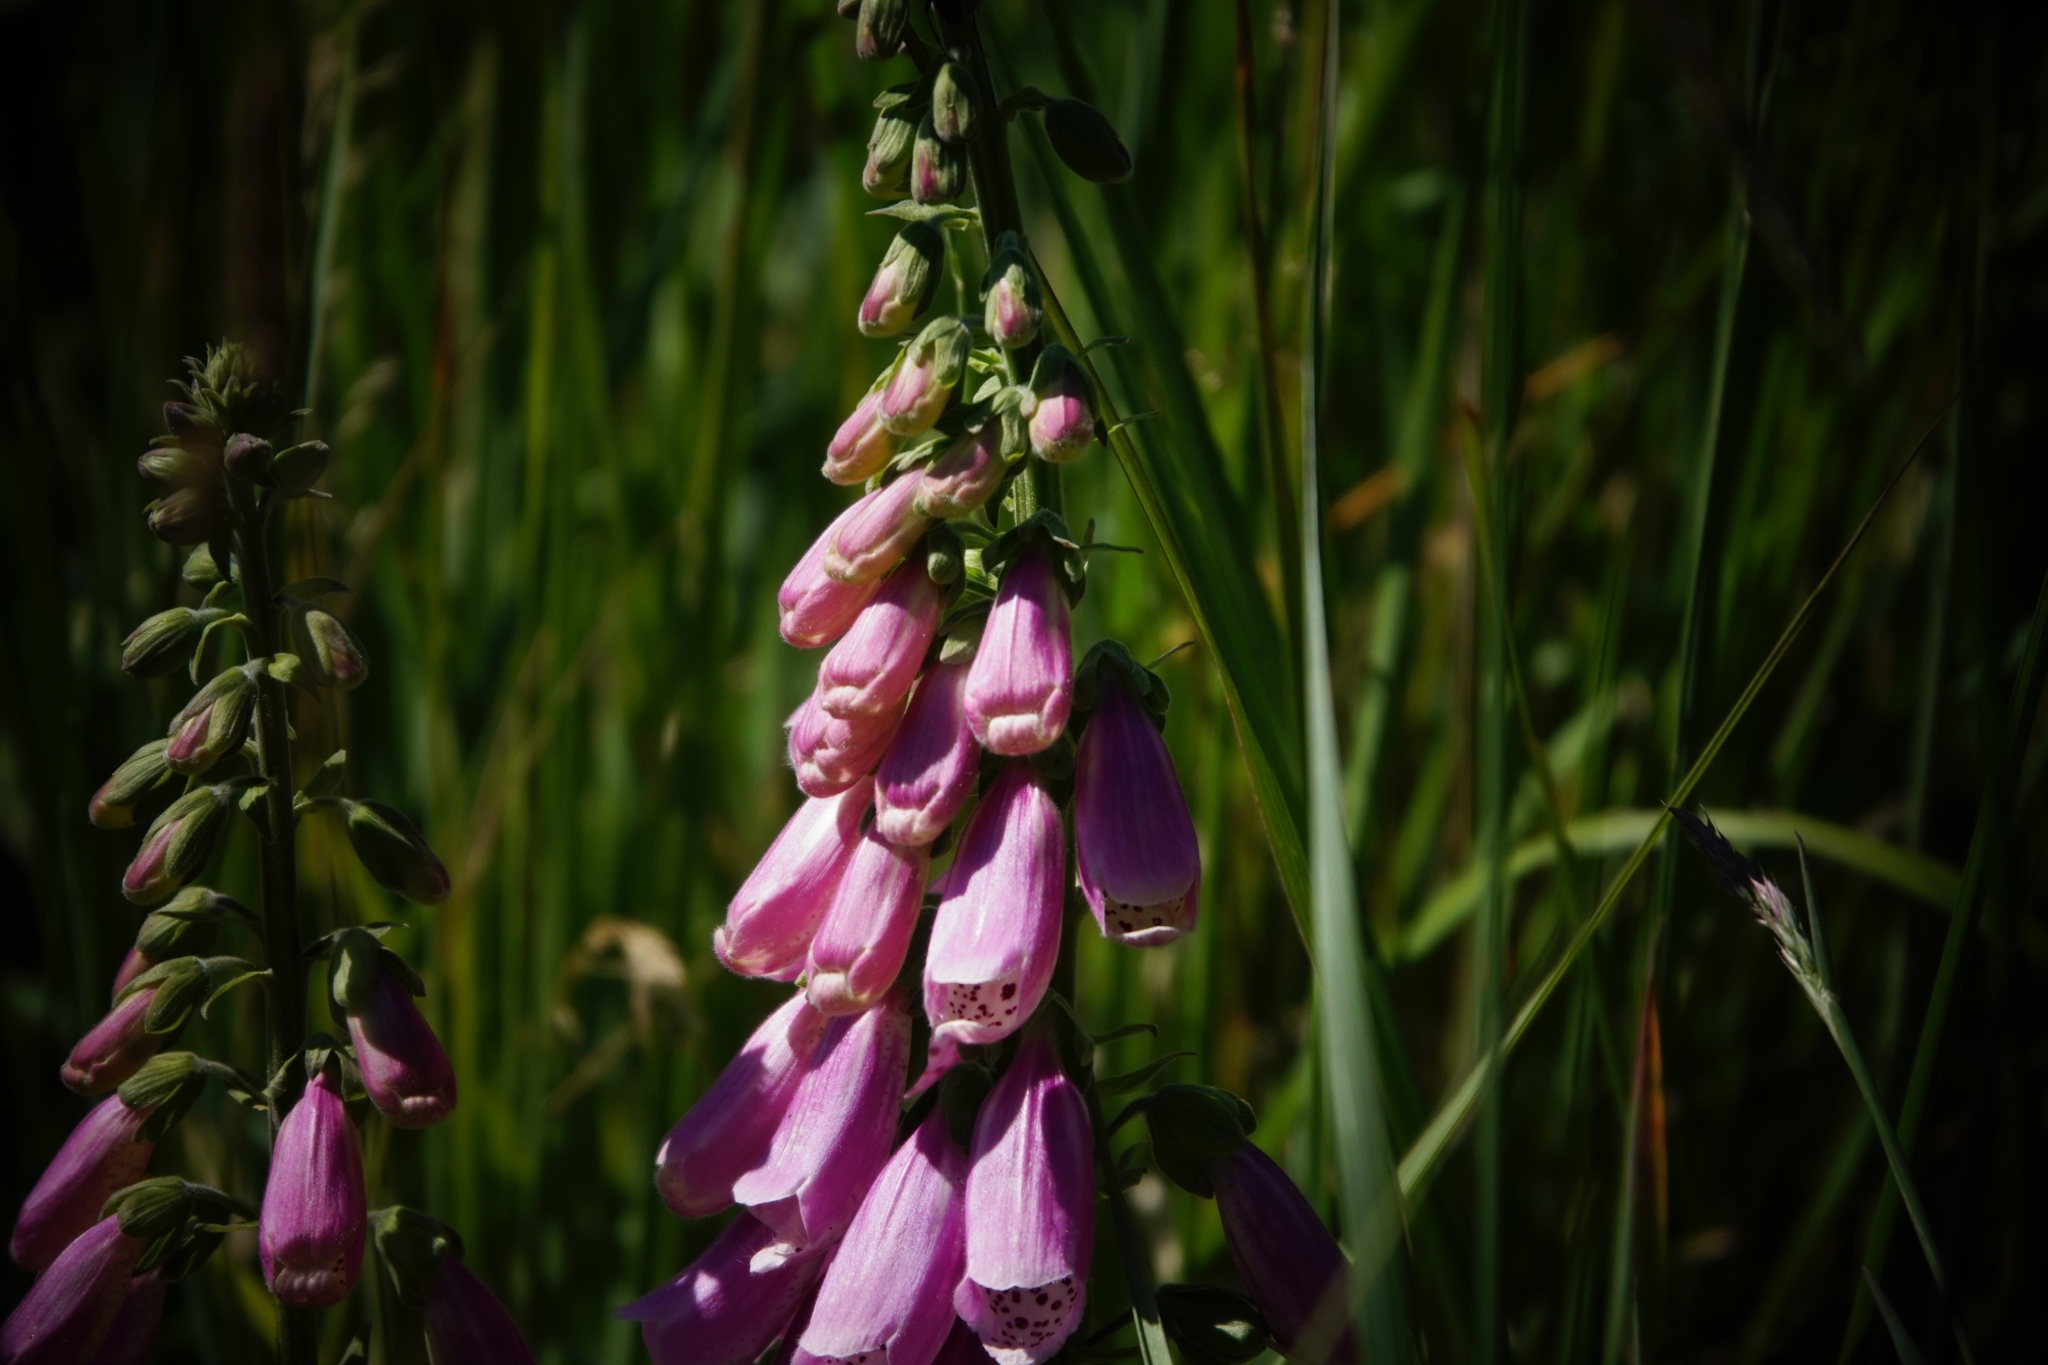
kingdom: Plantae
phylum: Tracheophyta
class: Magnoliopsida
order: Lamiales
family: Plantaginaceae
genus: Digitalis
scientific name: Digitalis purpurea
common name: Foxglove
